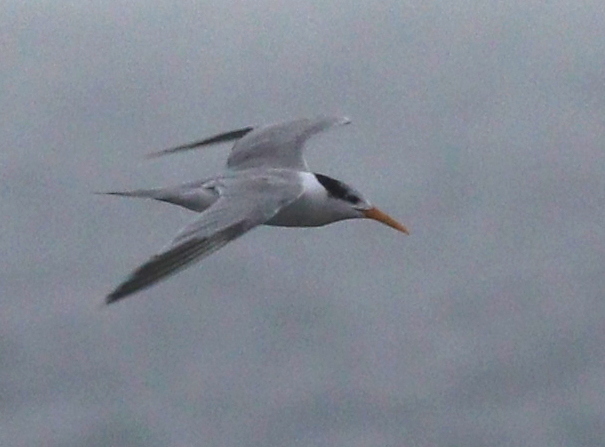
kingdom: Animalia
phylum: Chordata
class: Aves
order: Charadriiformes
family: Laridae
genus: Thalasseus
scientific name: Thalasseus bengalensis
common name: Lesser crested tern
